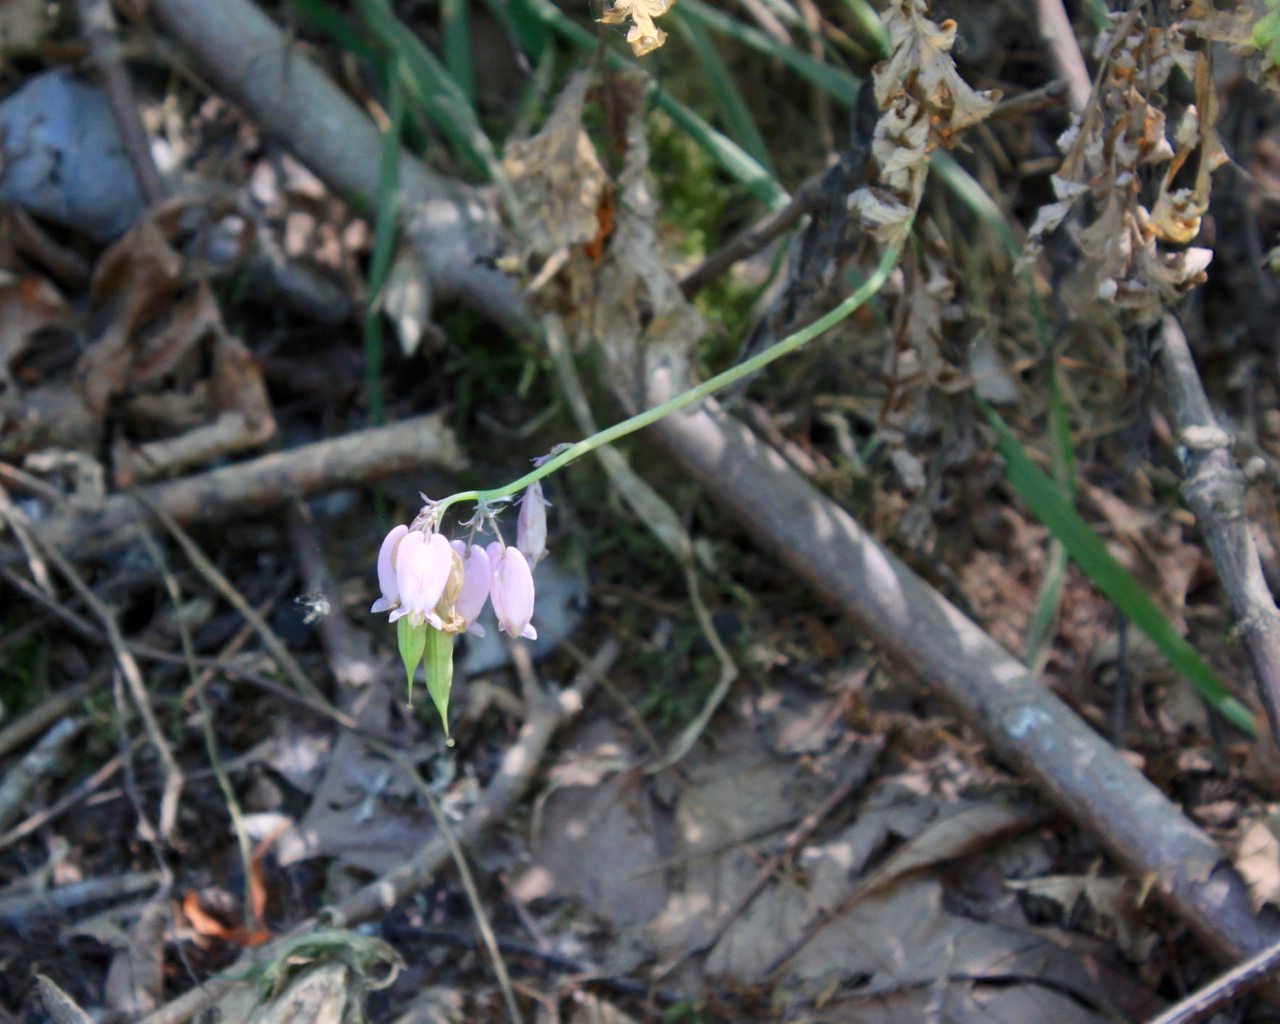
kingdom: Plantae
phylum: Tracheophyta
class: Magnoliopsida
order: Ranunculales
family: Papaveraceae
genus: Dicentra
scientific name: Dicentra formosa
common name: Bleeding-heart
